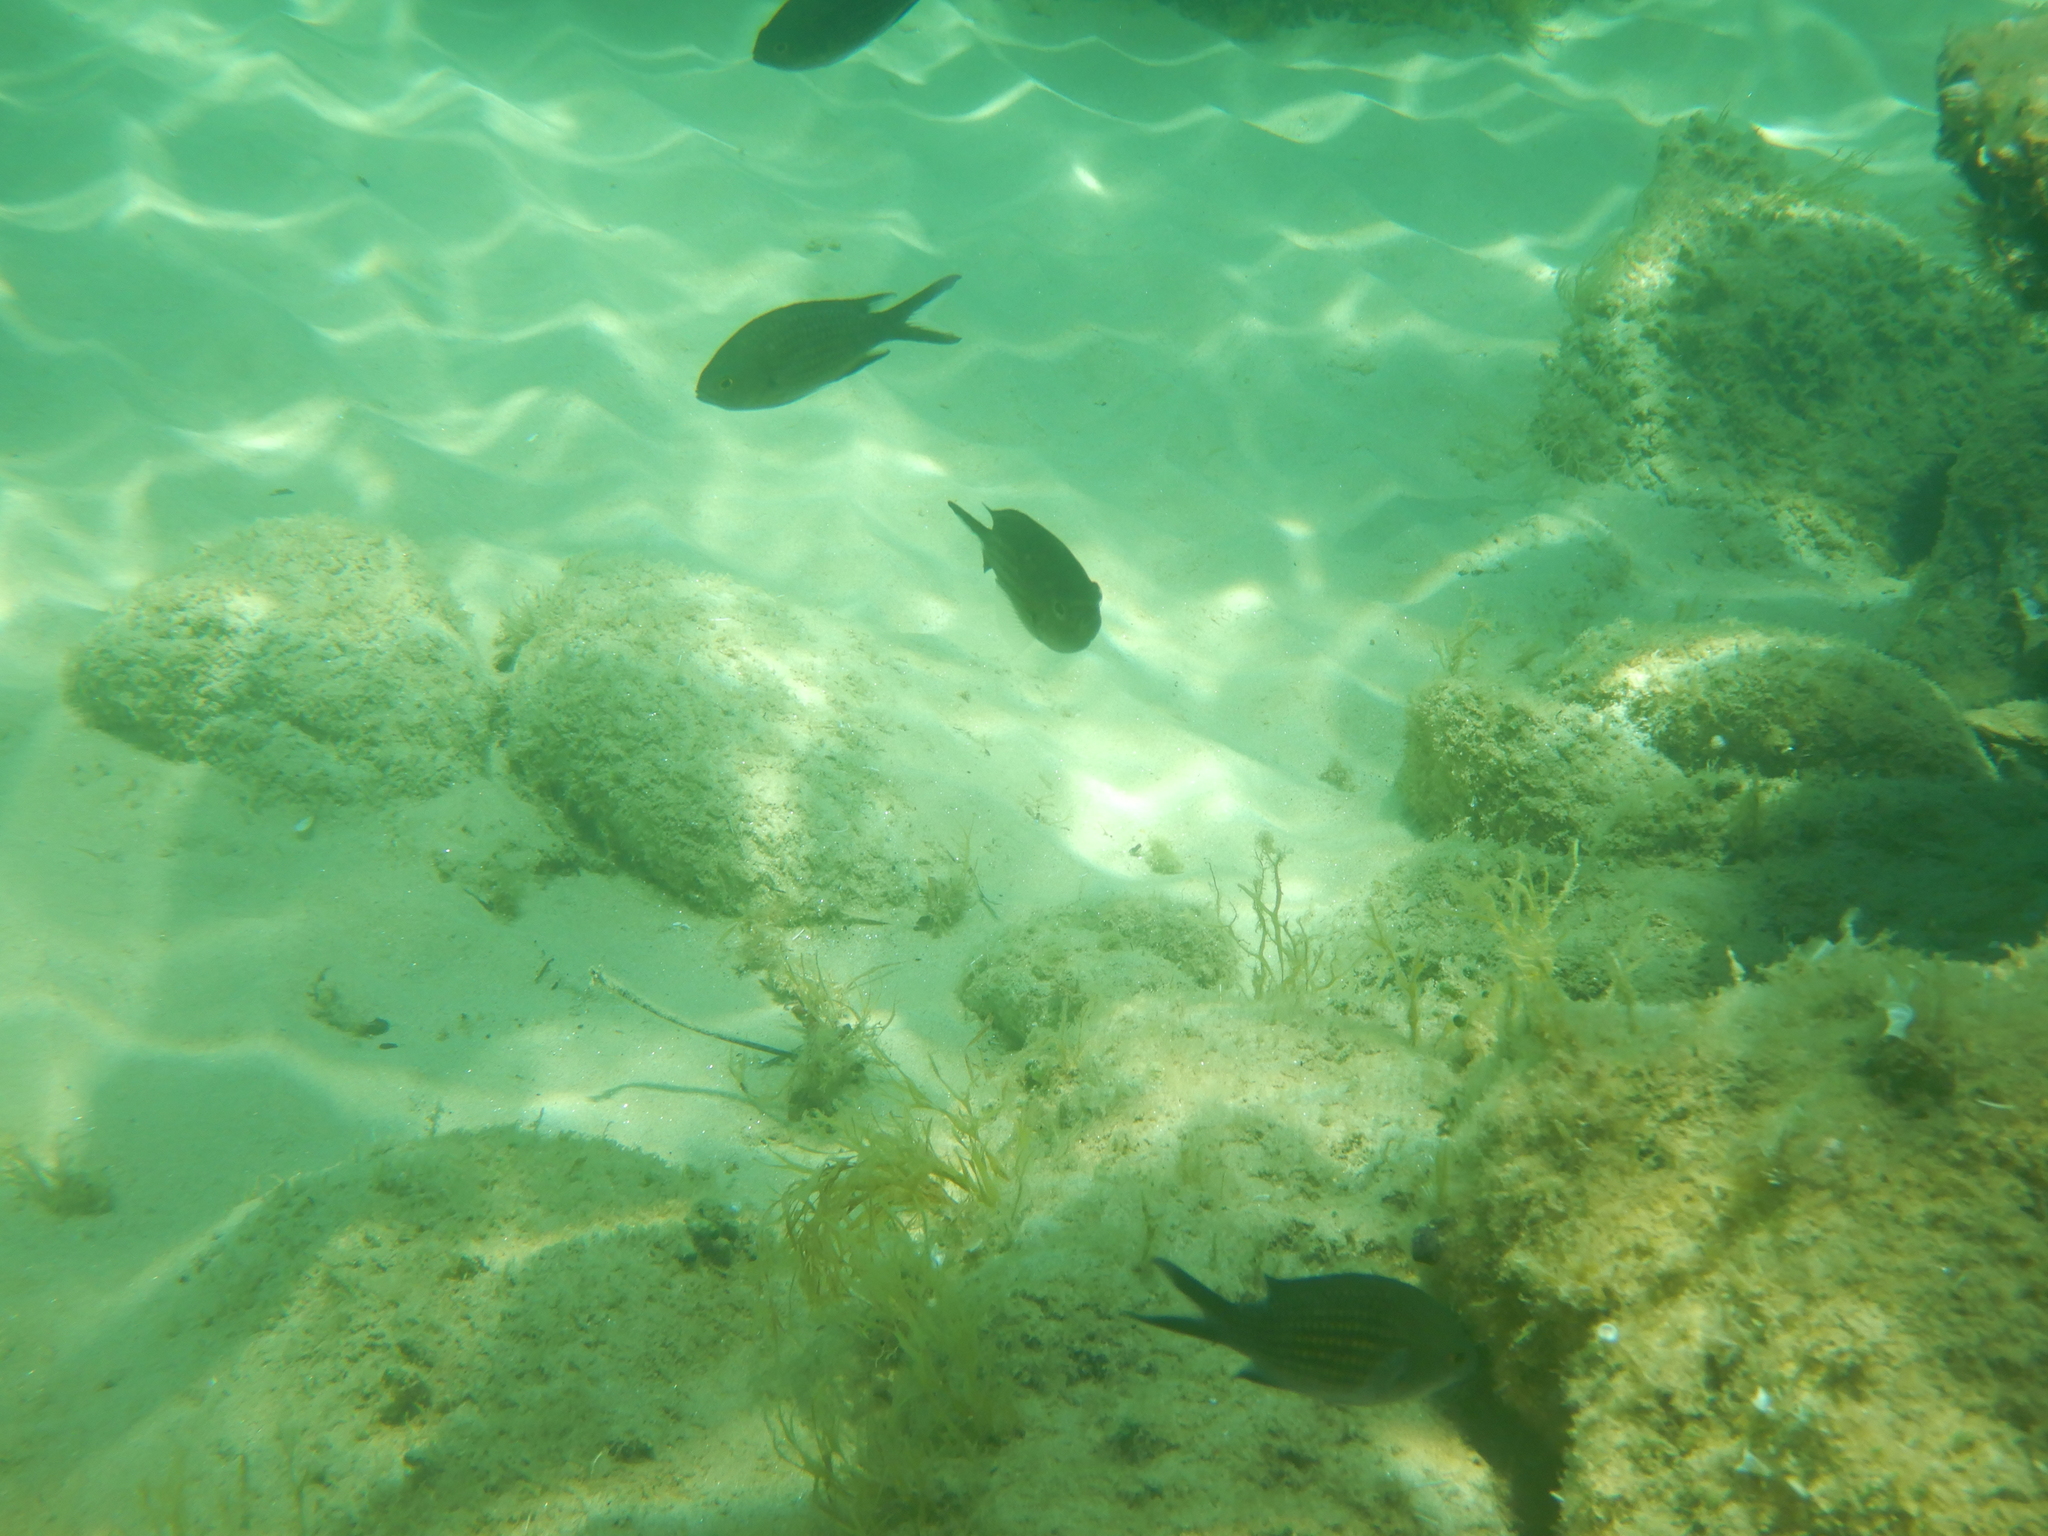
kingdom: Animalia
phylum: Chordata
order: Perciformes
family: Pomacentridae
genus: Chromis
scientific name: Chromis chromis
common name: Damselfish
